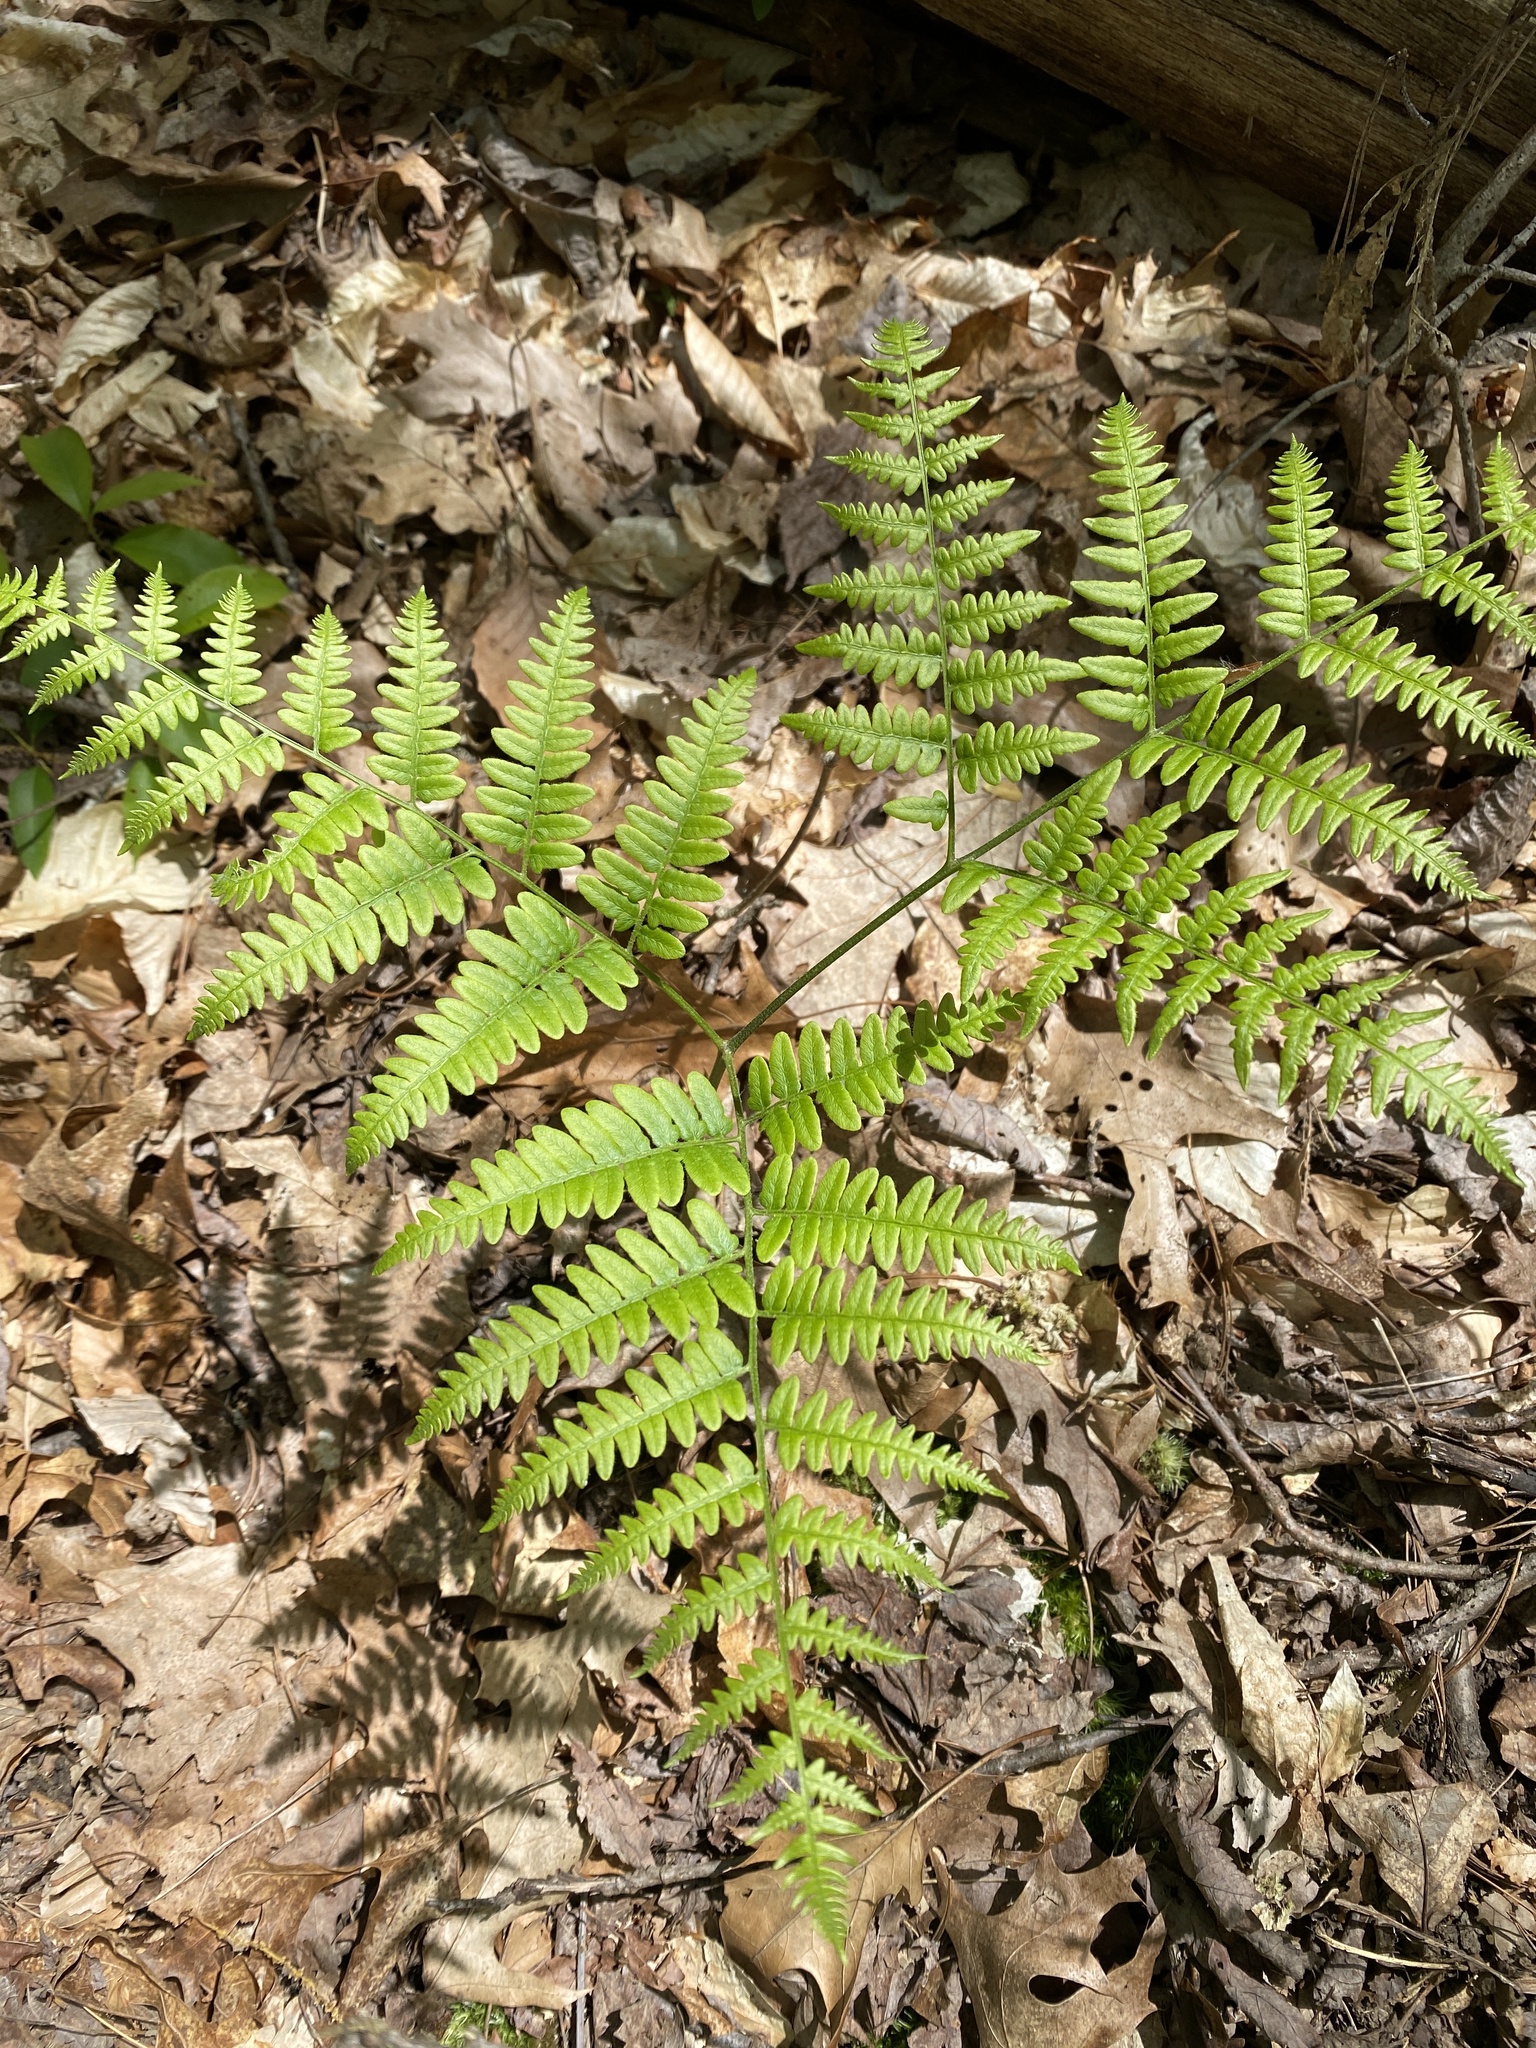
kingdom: Plantae
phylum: Tracheophyta
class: Polypodiopsida
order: Polypodiales
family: Dennstaedtiaceae
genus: Pteridium
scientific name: Pteridium aquilinum
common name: Bracken
